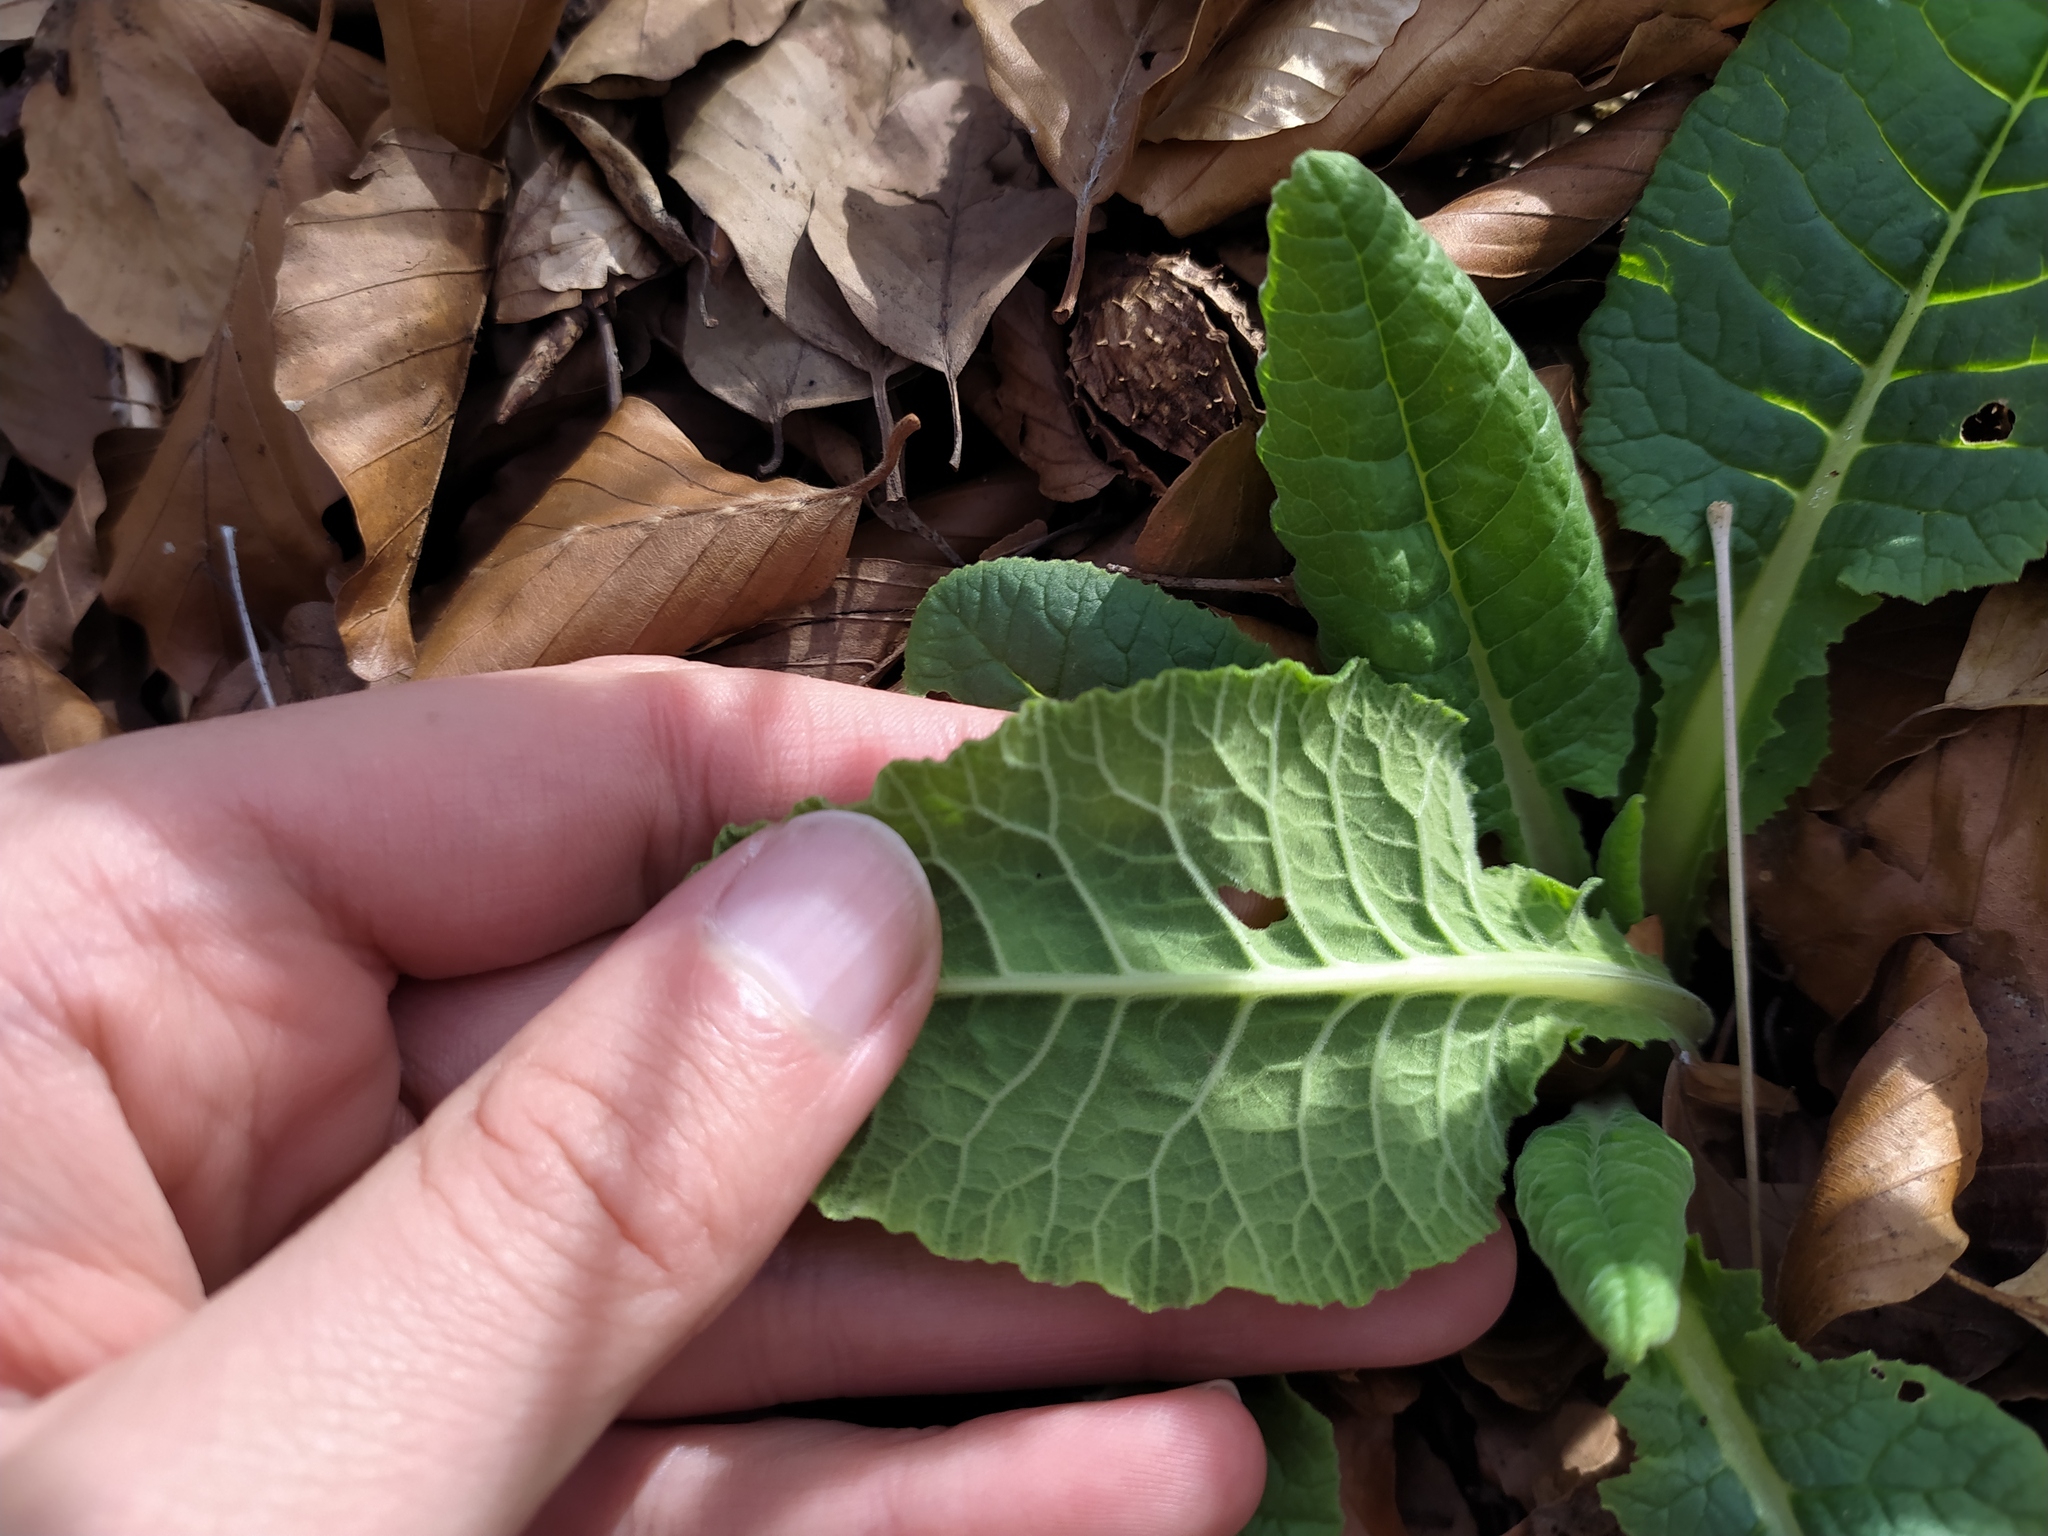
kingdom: Plantae
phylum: Tracheophyta
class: Magnoliopsida
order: Ericales
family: Primulaceae
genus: Primula
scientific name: Primula veris
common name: Cowslip
